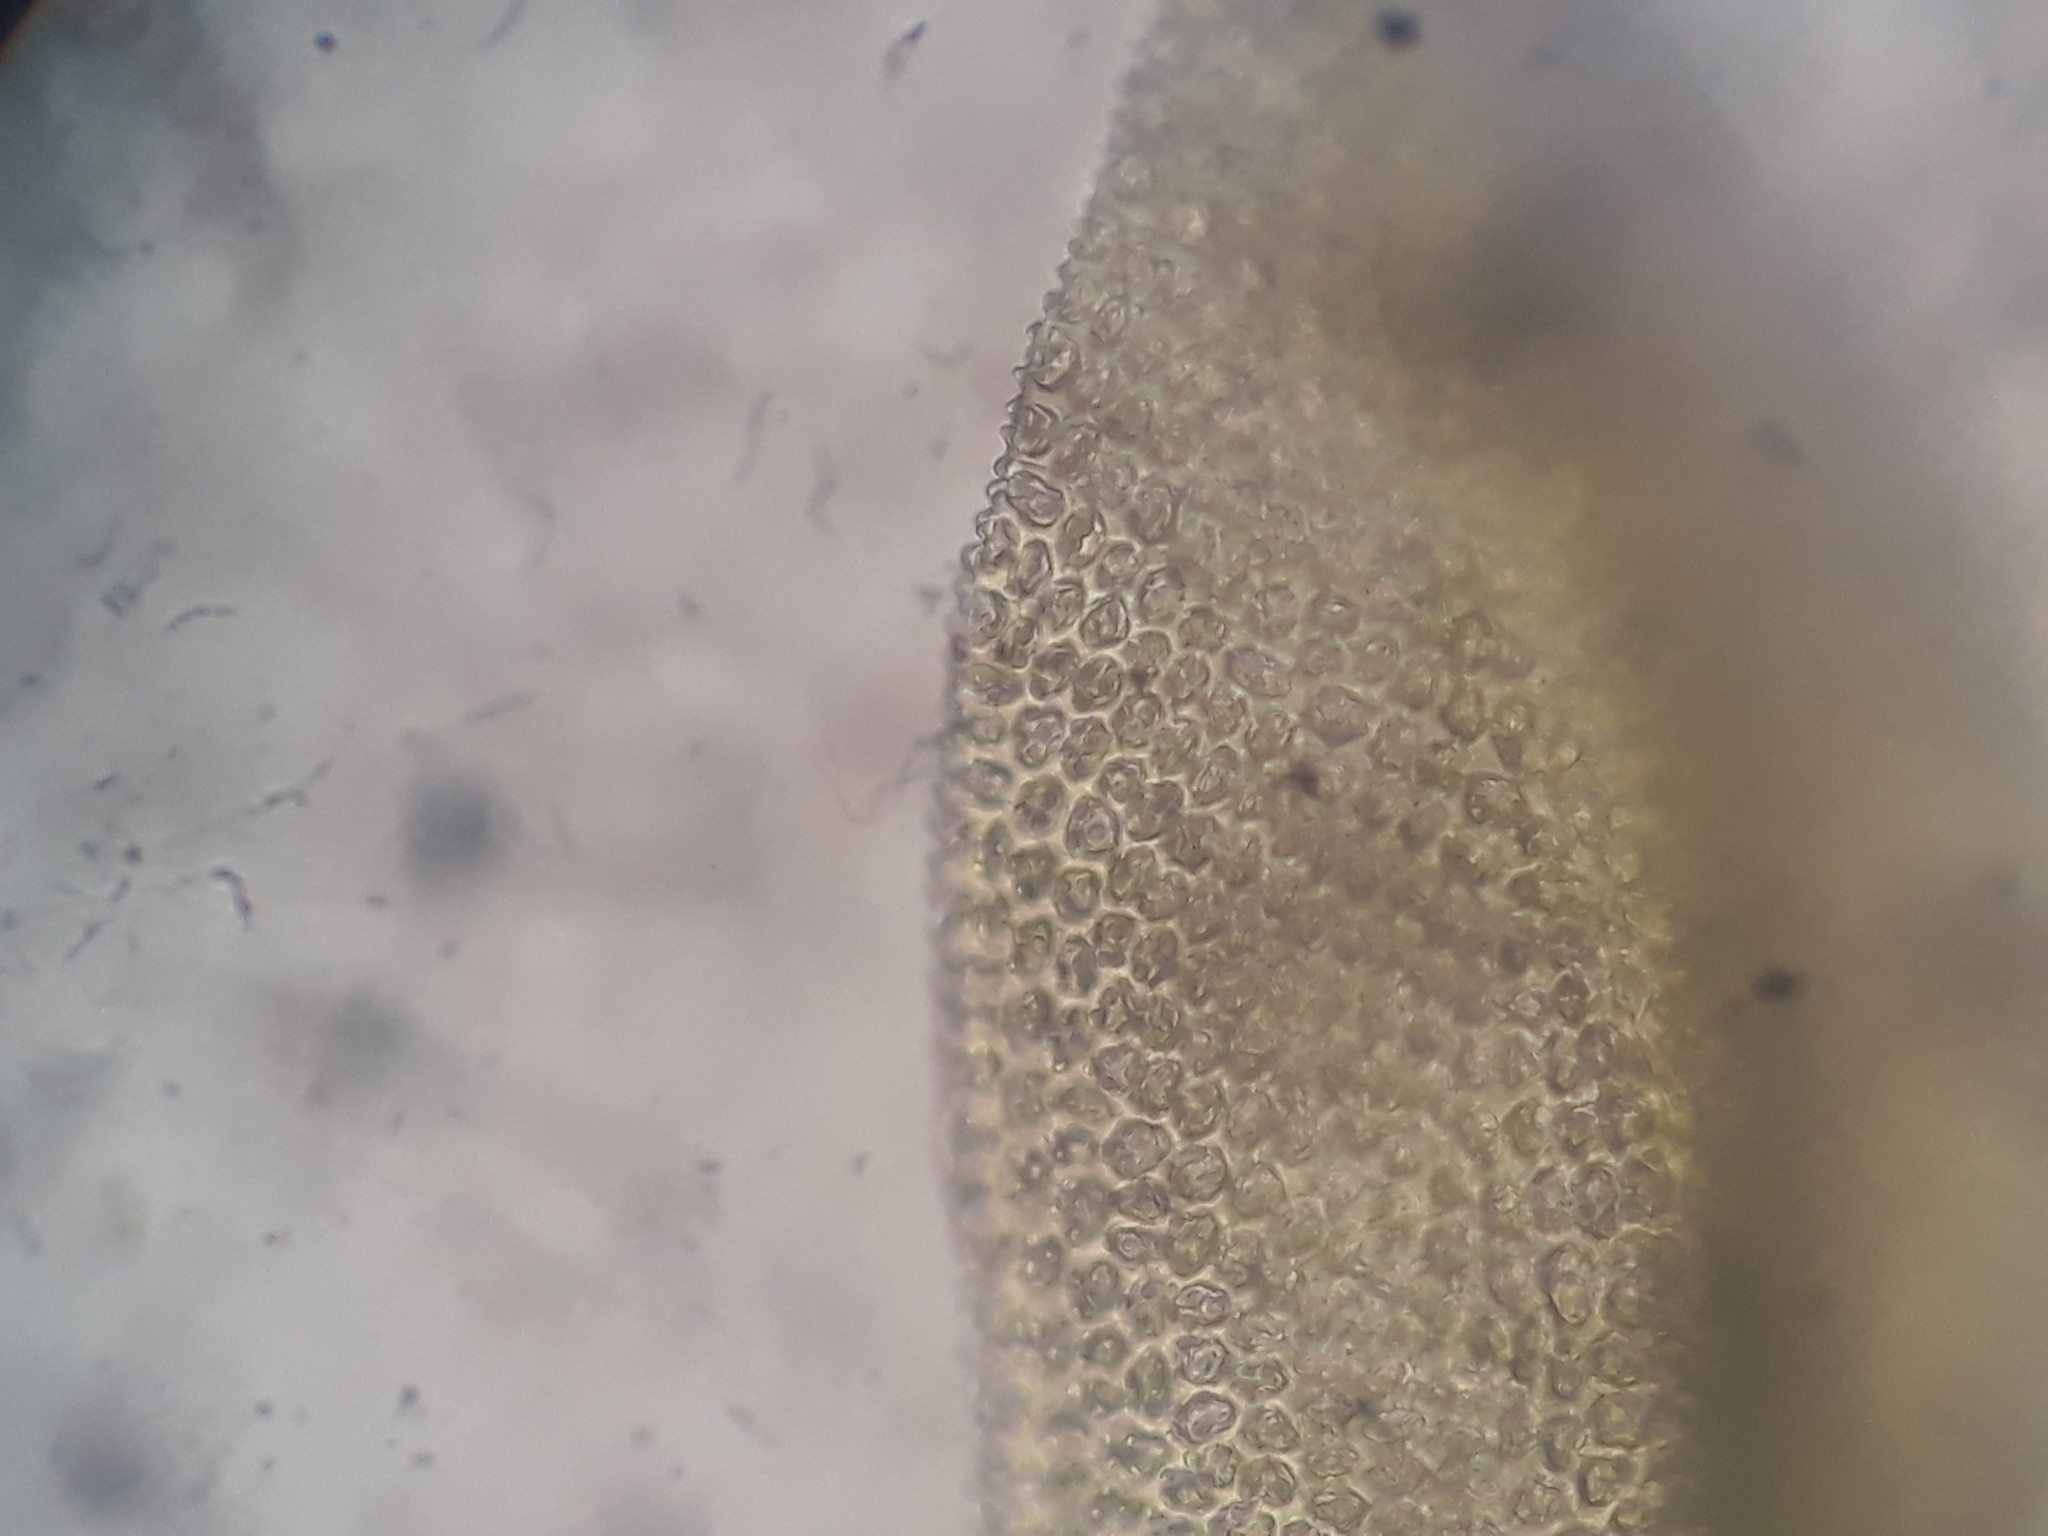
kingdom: Plantae
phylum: Bryophyta
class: Bryopsida
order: Orthotrichales
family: Orthotrichaceae
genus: Zygodon
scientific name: Zygodon intermedius
